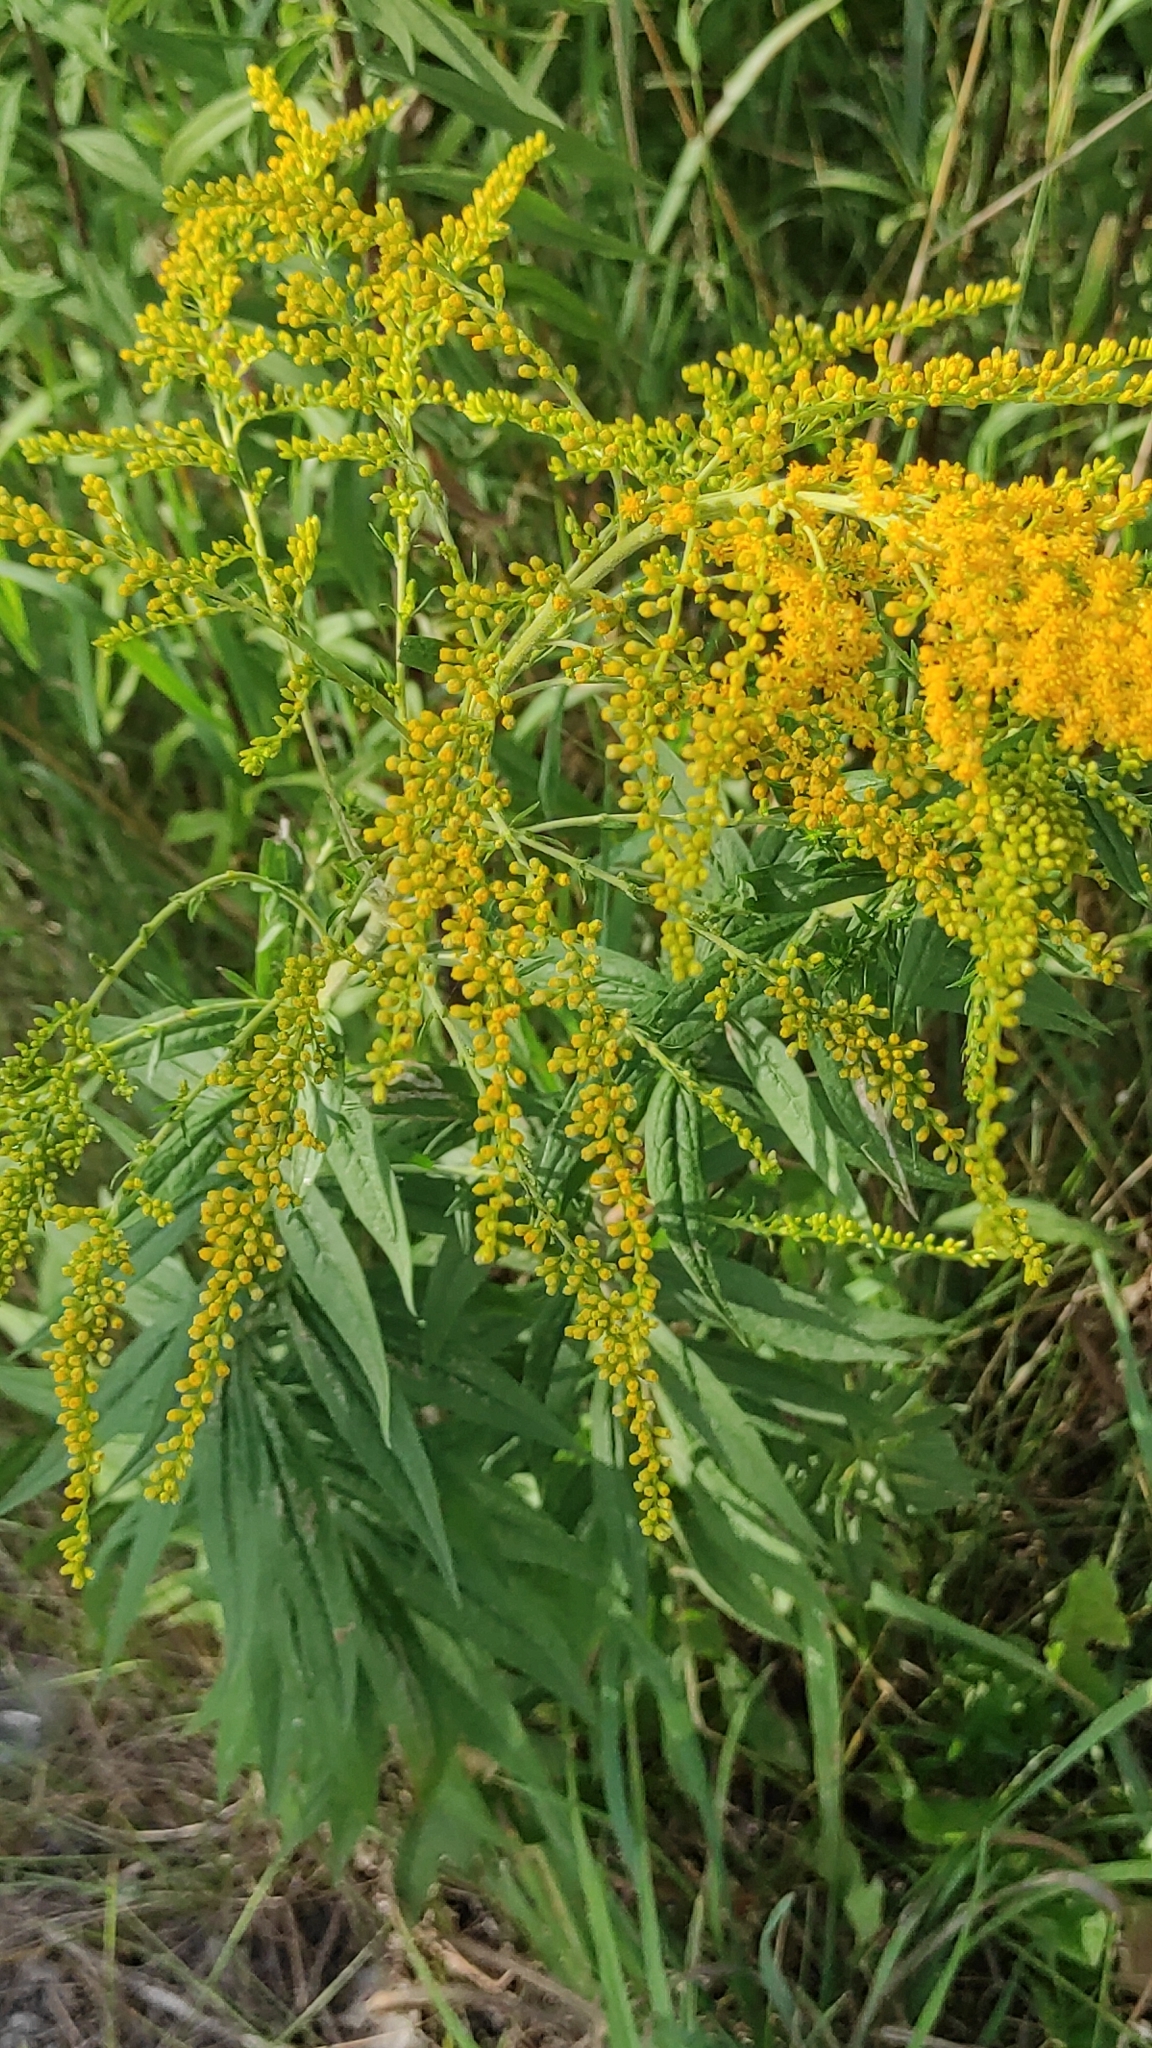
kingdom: Plantae
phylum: Tracheophyta
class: Magnoliopsida
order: Asterales
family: Asteraceae
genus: Solidago
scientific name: Solidago canadensis
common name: Canada goldenrod
